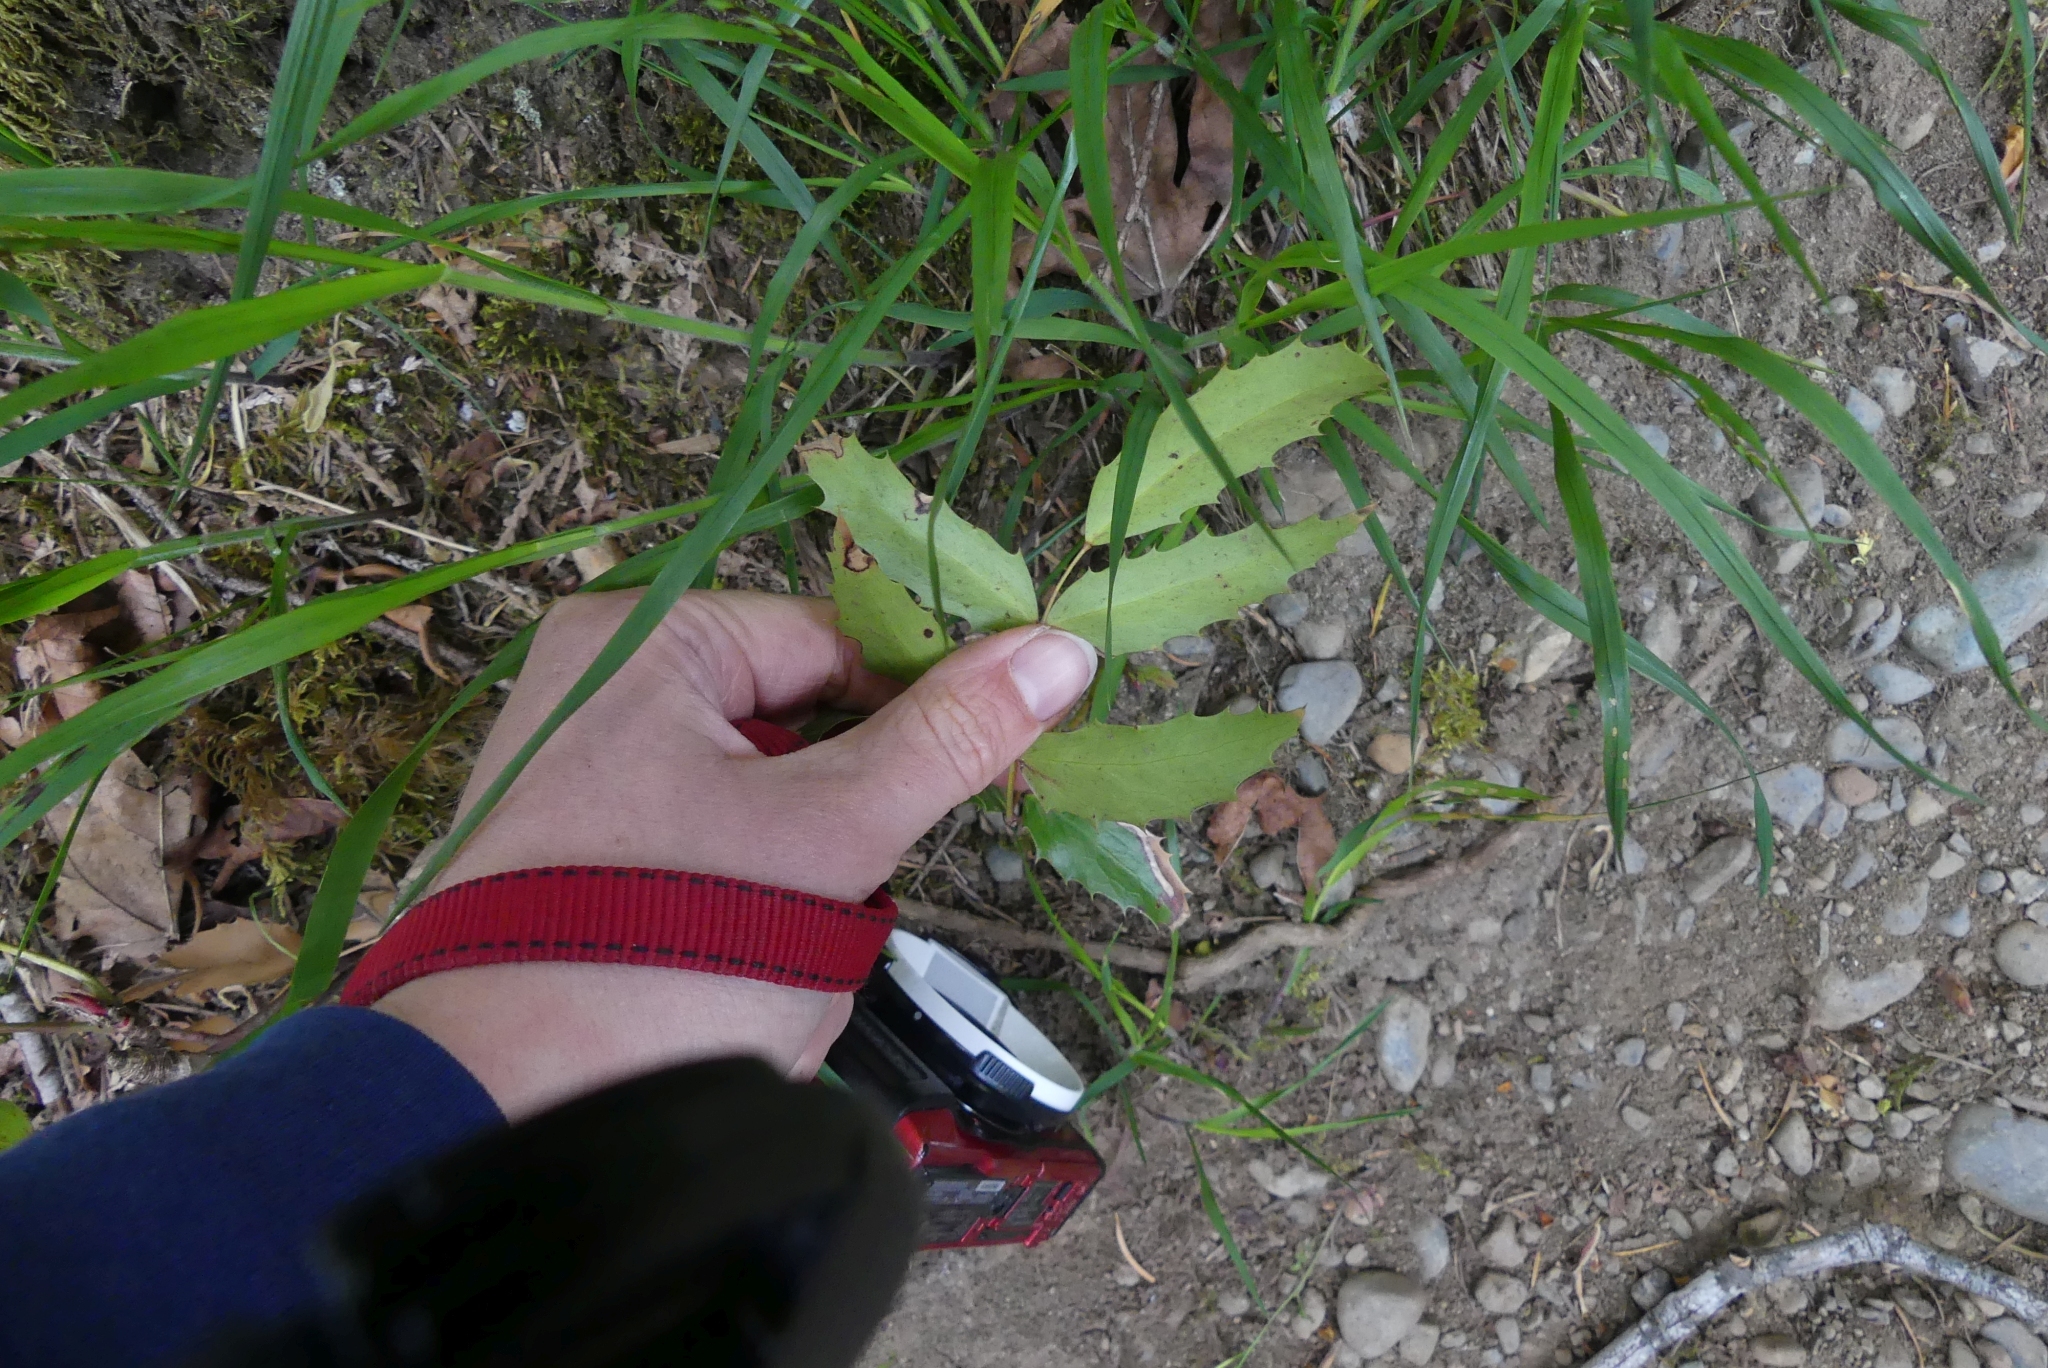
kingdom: Plantae
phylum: Tracheophyta
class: Magnoliopsida
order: Ranunculales
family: Berberidaceae
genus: Mahonia
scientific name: Mahonia nervosa
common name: Cascade oregon-grape
